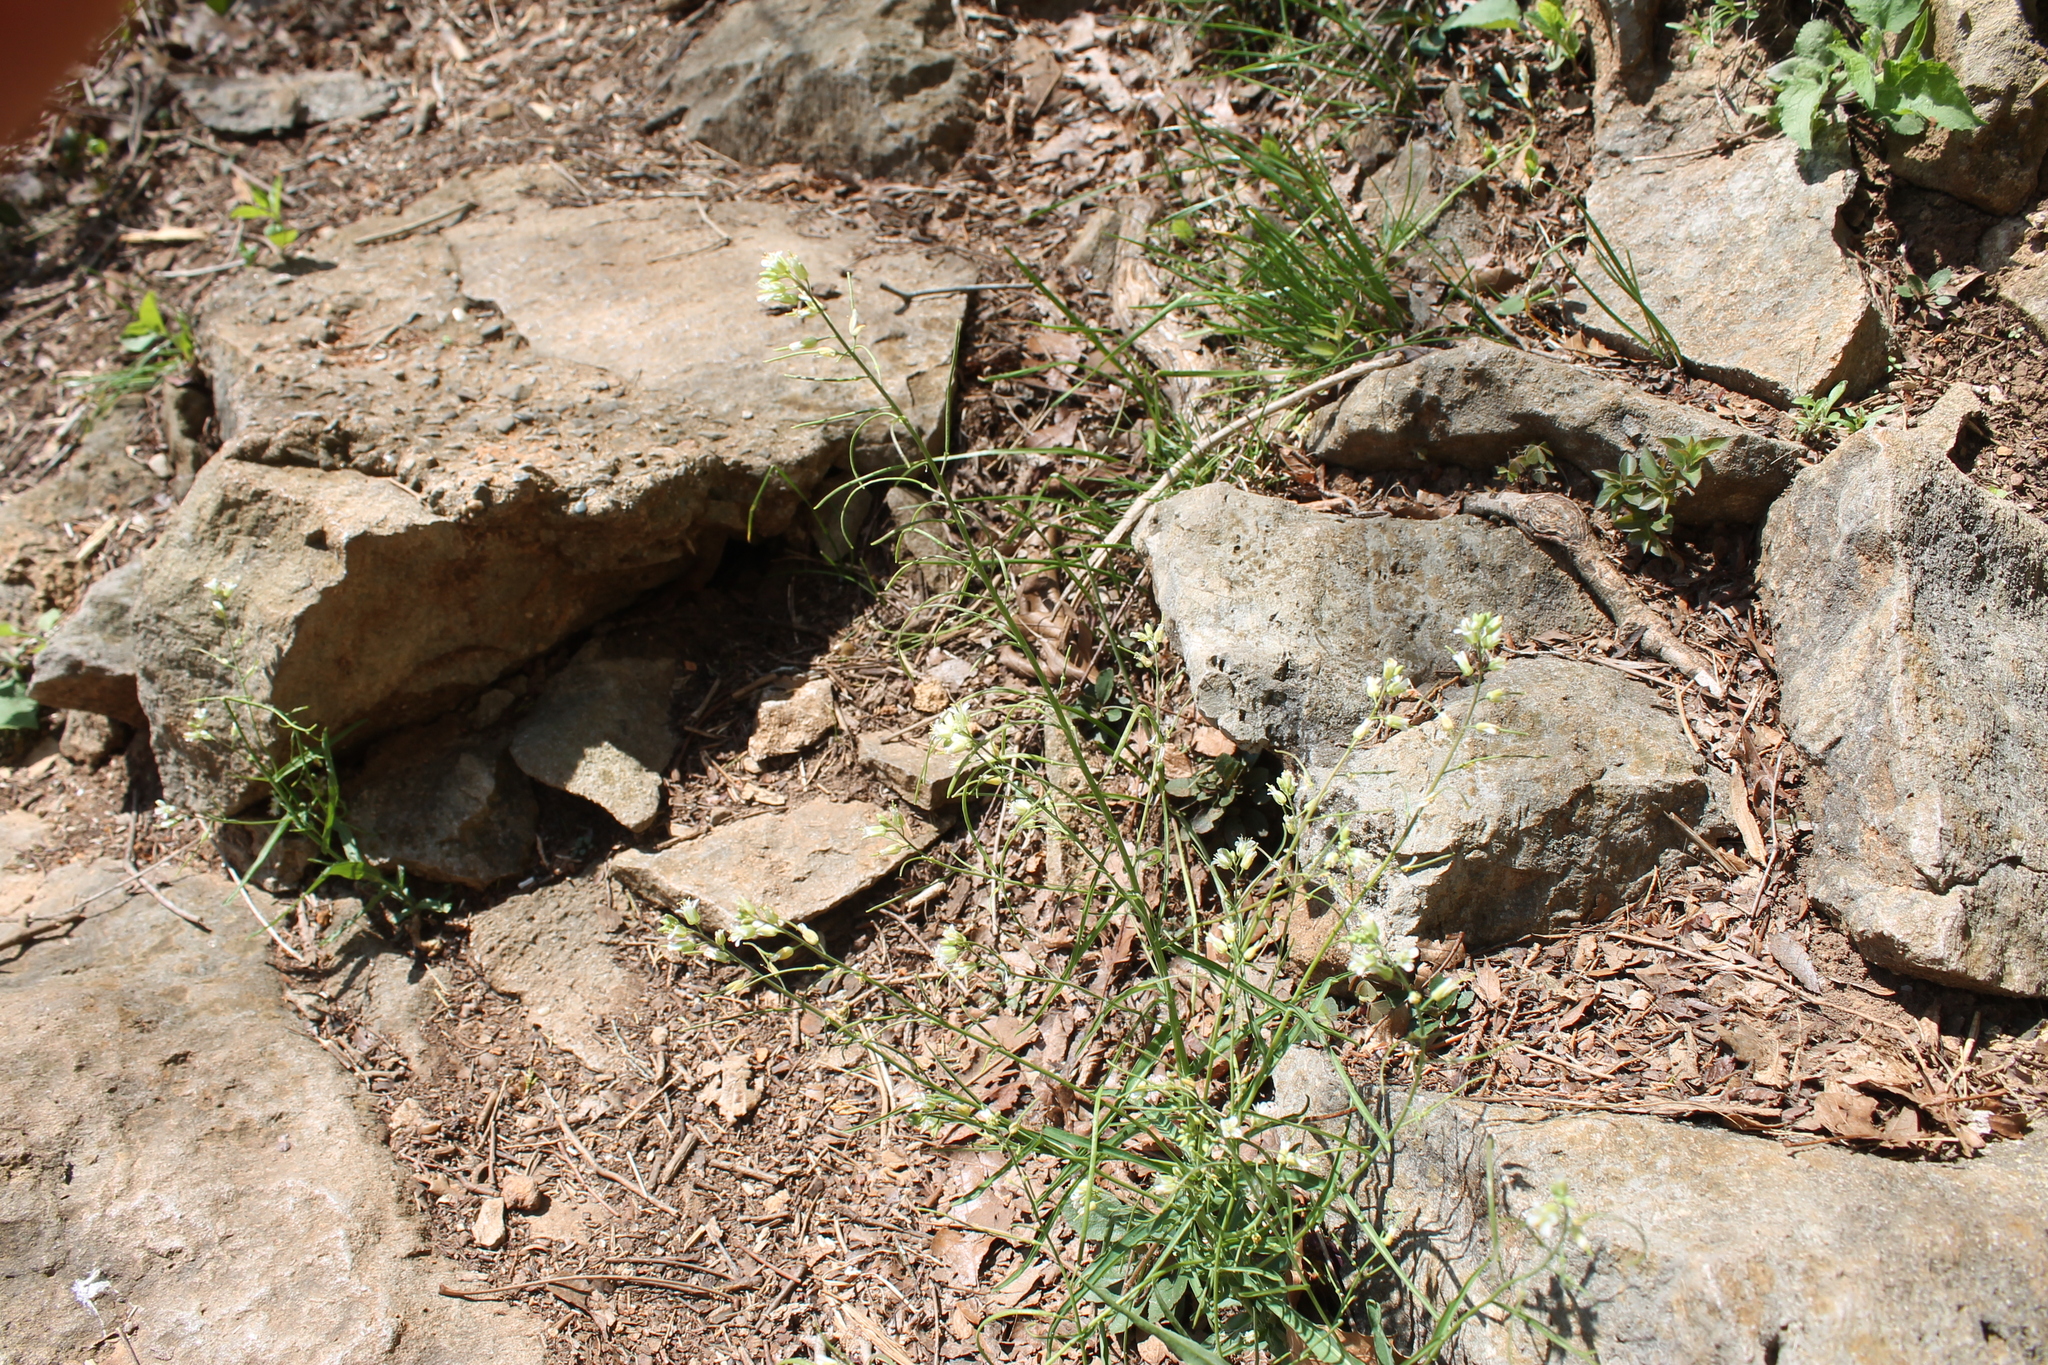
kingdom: Plantae
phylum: Tracheophyta
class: Magnoliopsida
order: Brassicales
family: Brassicaceae
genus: Borodinia
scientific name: Borodinia laevigata
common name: Smooth rockcress
